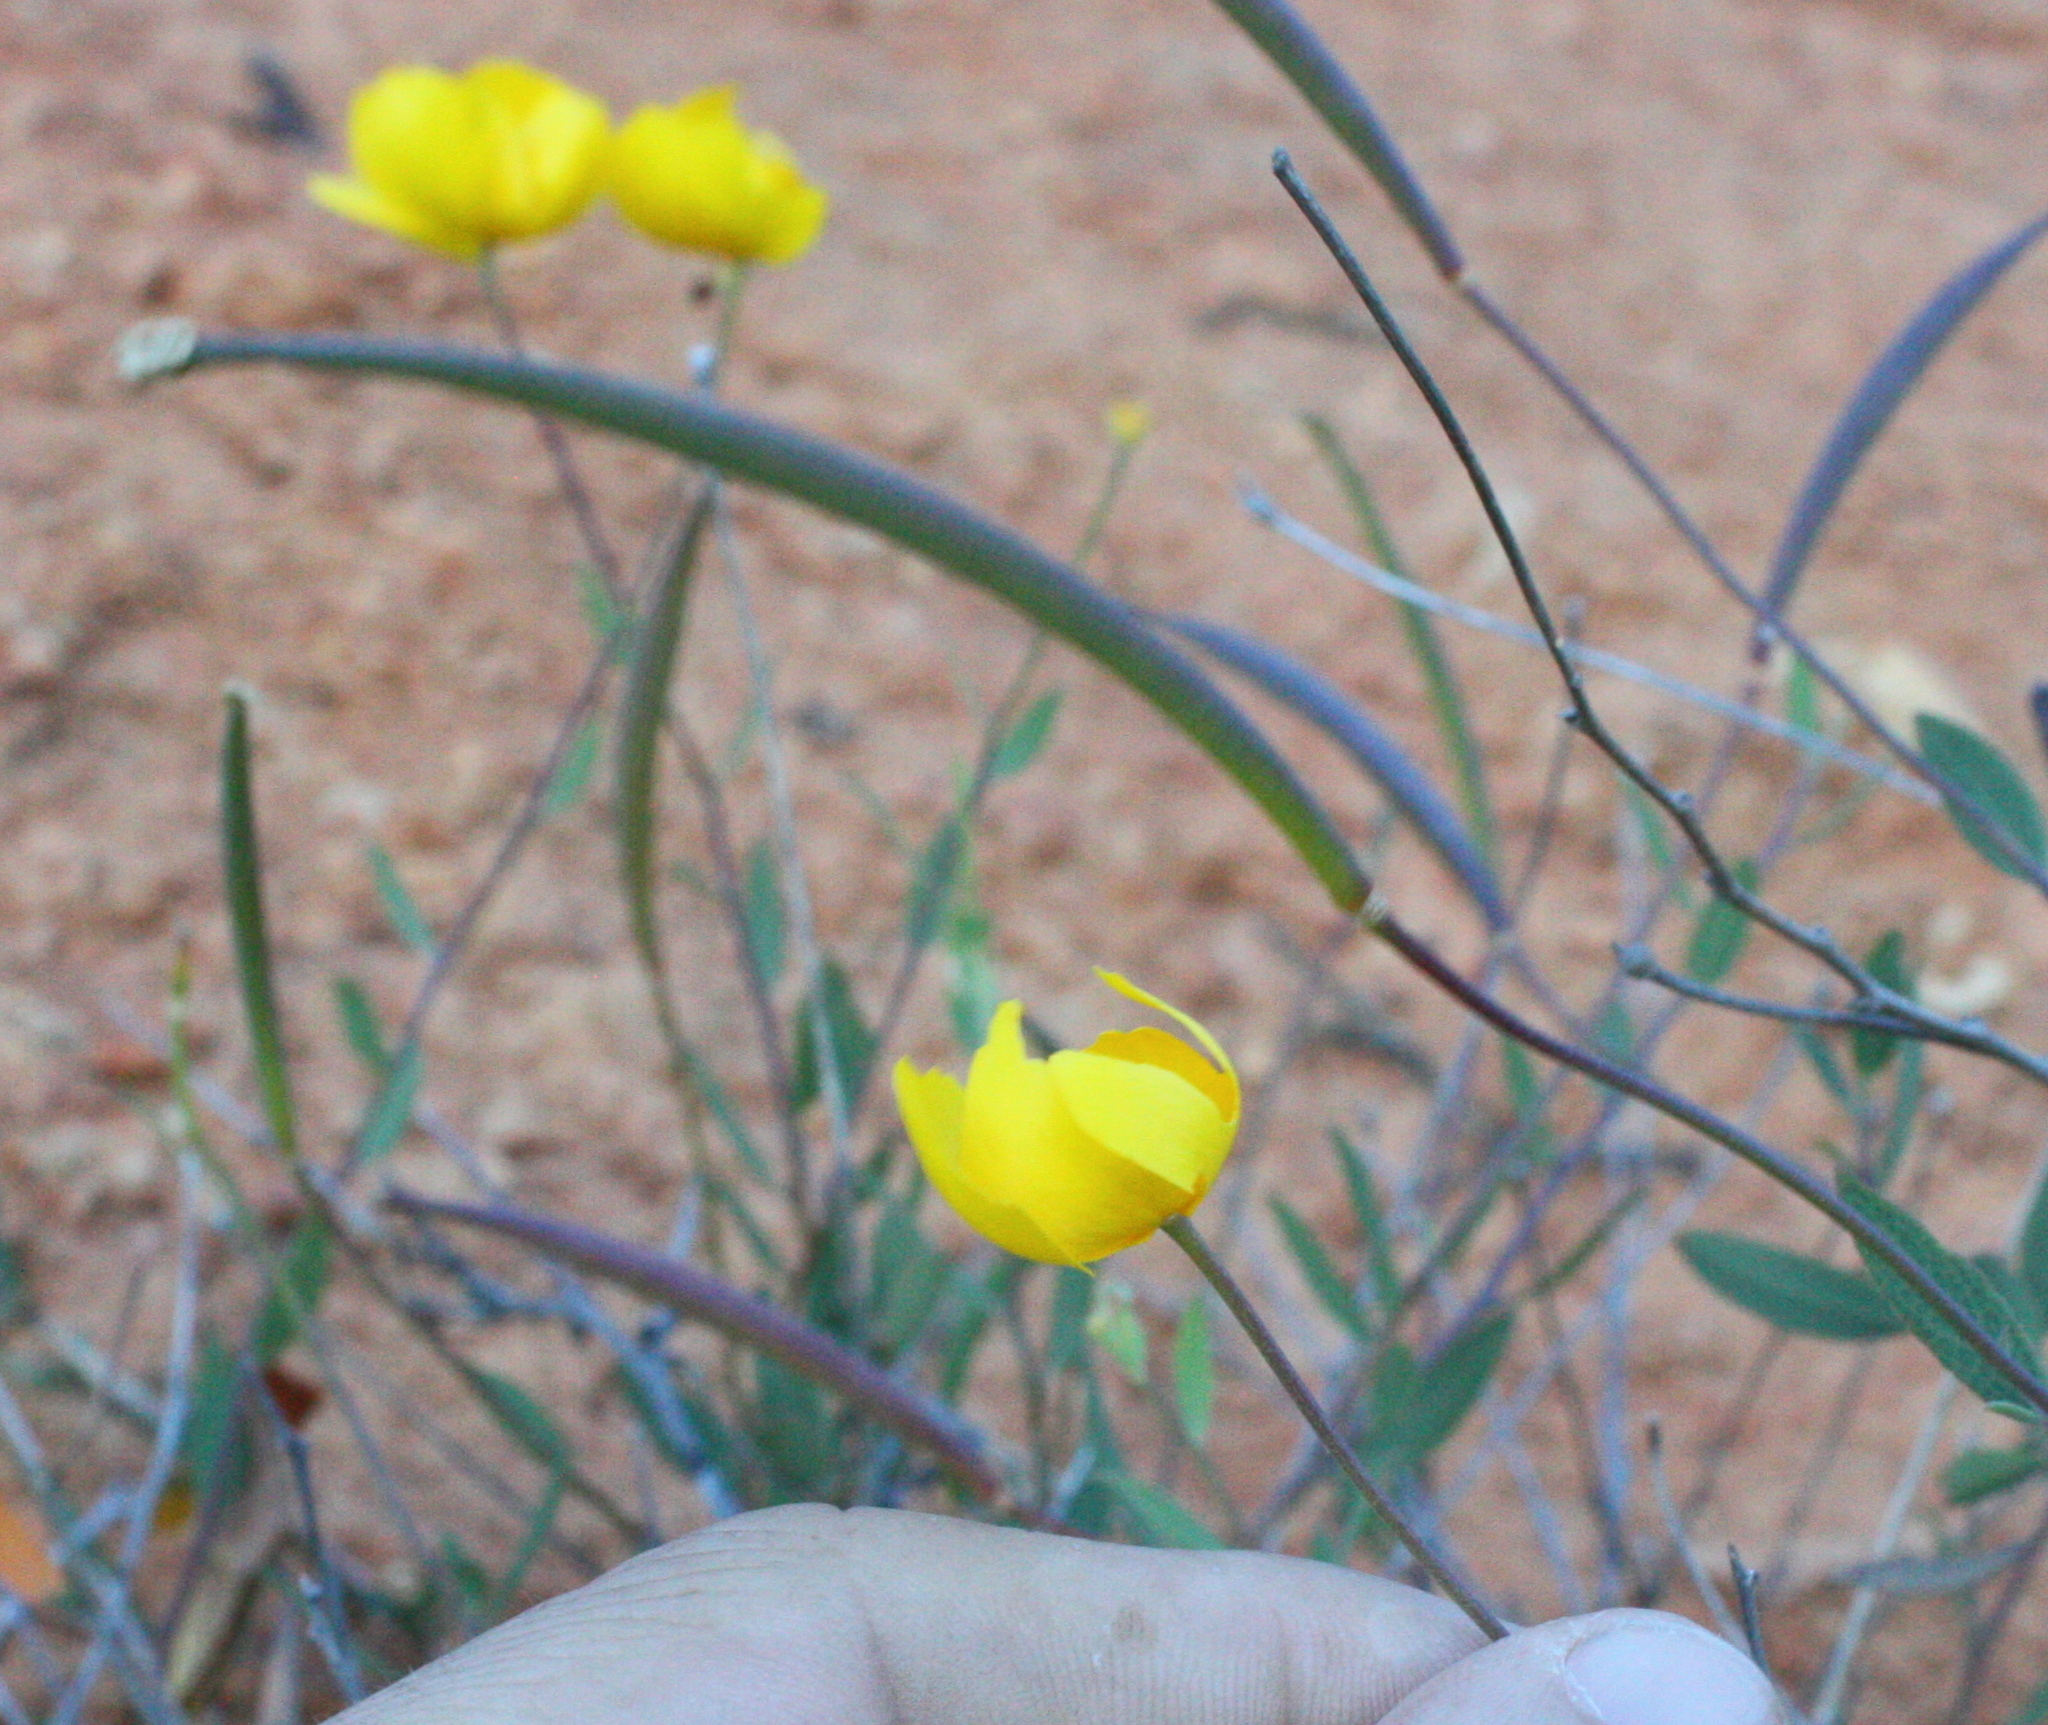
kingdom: Plantae
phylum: Tracheophyta
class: Magnoliopsida
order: Ranunculales
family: Papaveraceae
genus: Dendromecon
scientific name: Dendromecon rigida
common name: Tree poppy
